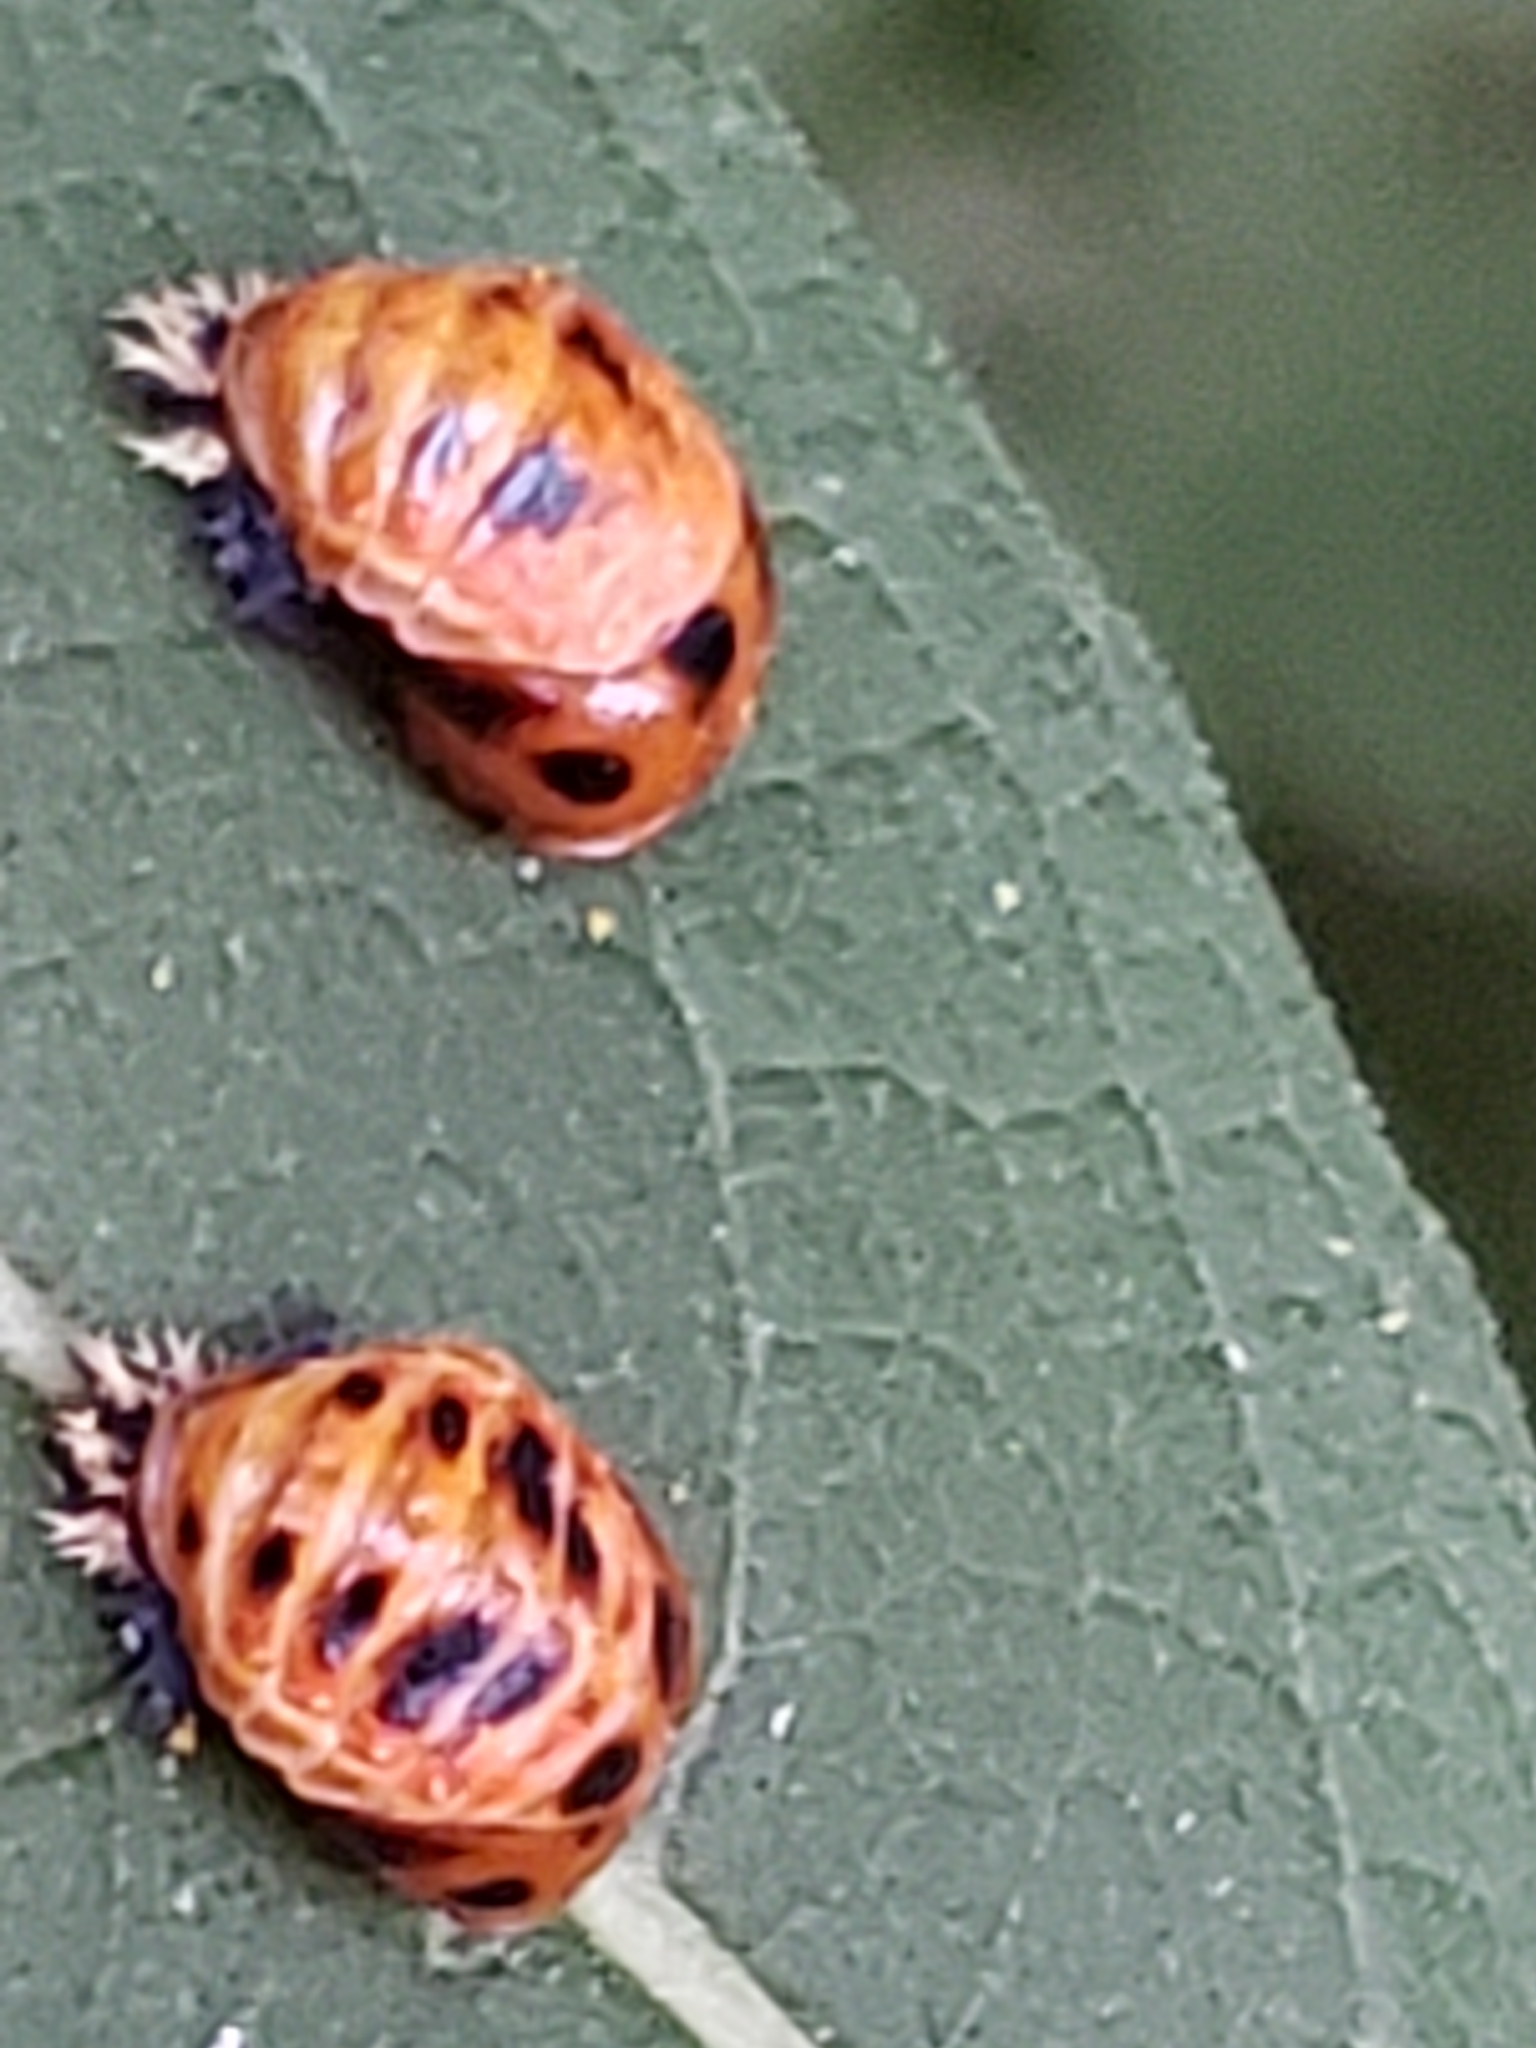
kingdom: Animalia
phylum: Arthropoda
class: Insecta
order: Coleoptera
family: Coccinellidae
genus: Harmonia
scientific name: Harmonia axyridis
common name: Harlequin ladybird
